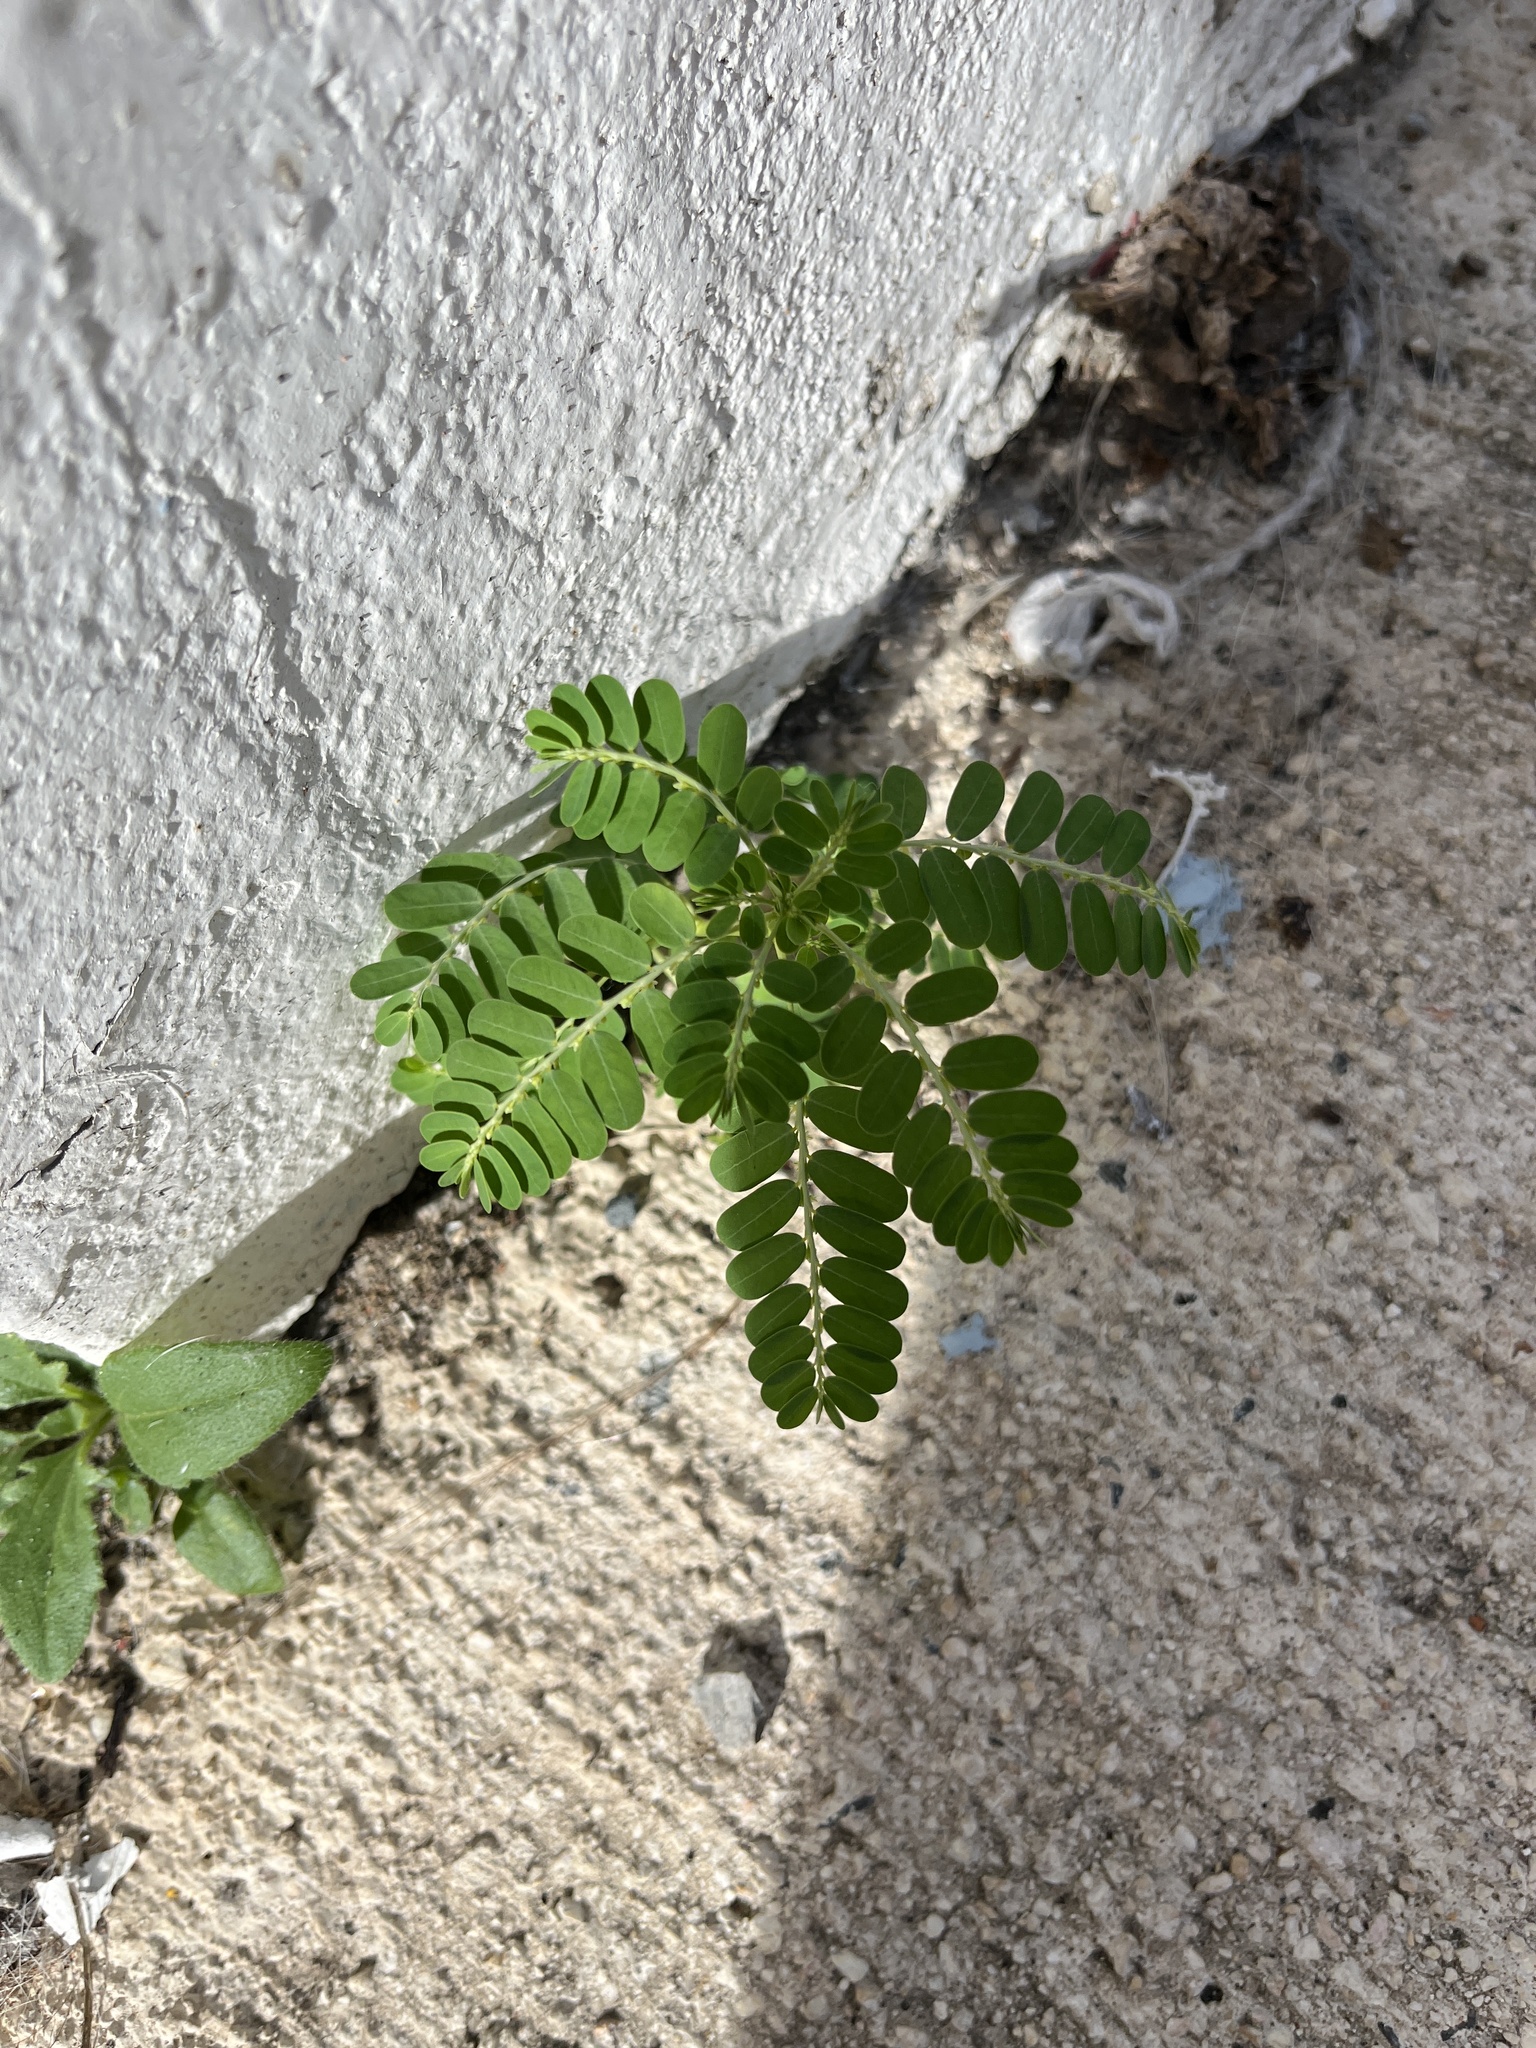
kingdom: Plantae
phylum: Tracheophyta
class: Magnoliopsida
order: Malpighiales
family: Phyllanthaceae
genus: Phyllanthus
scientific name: Phyllanthus amarus
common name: Carry me seed
